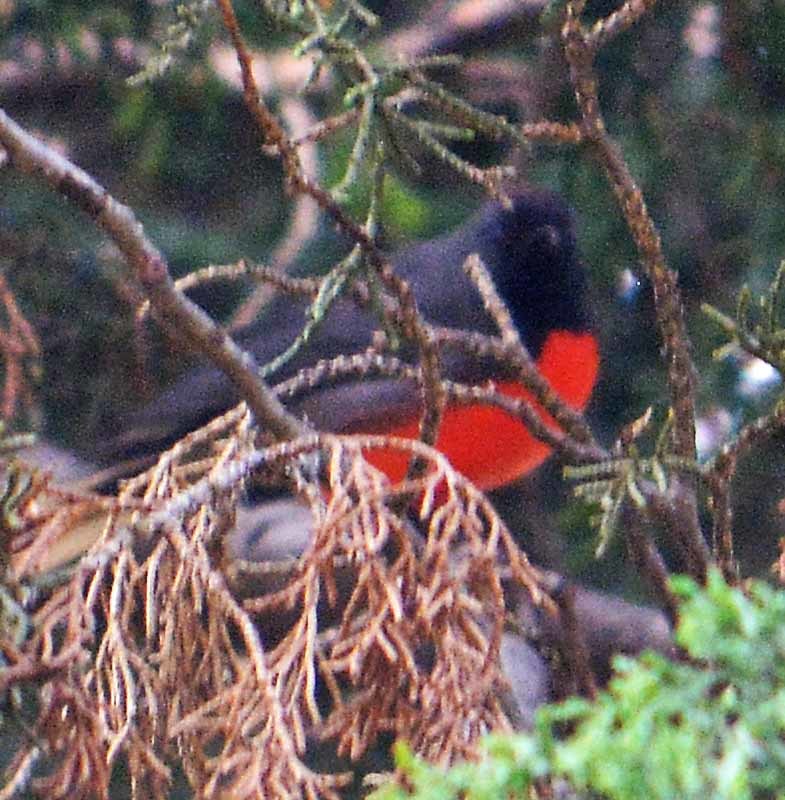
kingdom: Animalia
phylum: Chordata
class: Aves
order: Passeriformes
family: Parulidae
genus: Myioborus
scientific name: Myioborus miniatus
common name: Slate-throated redstart
